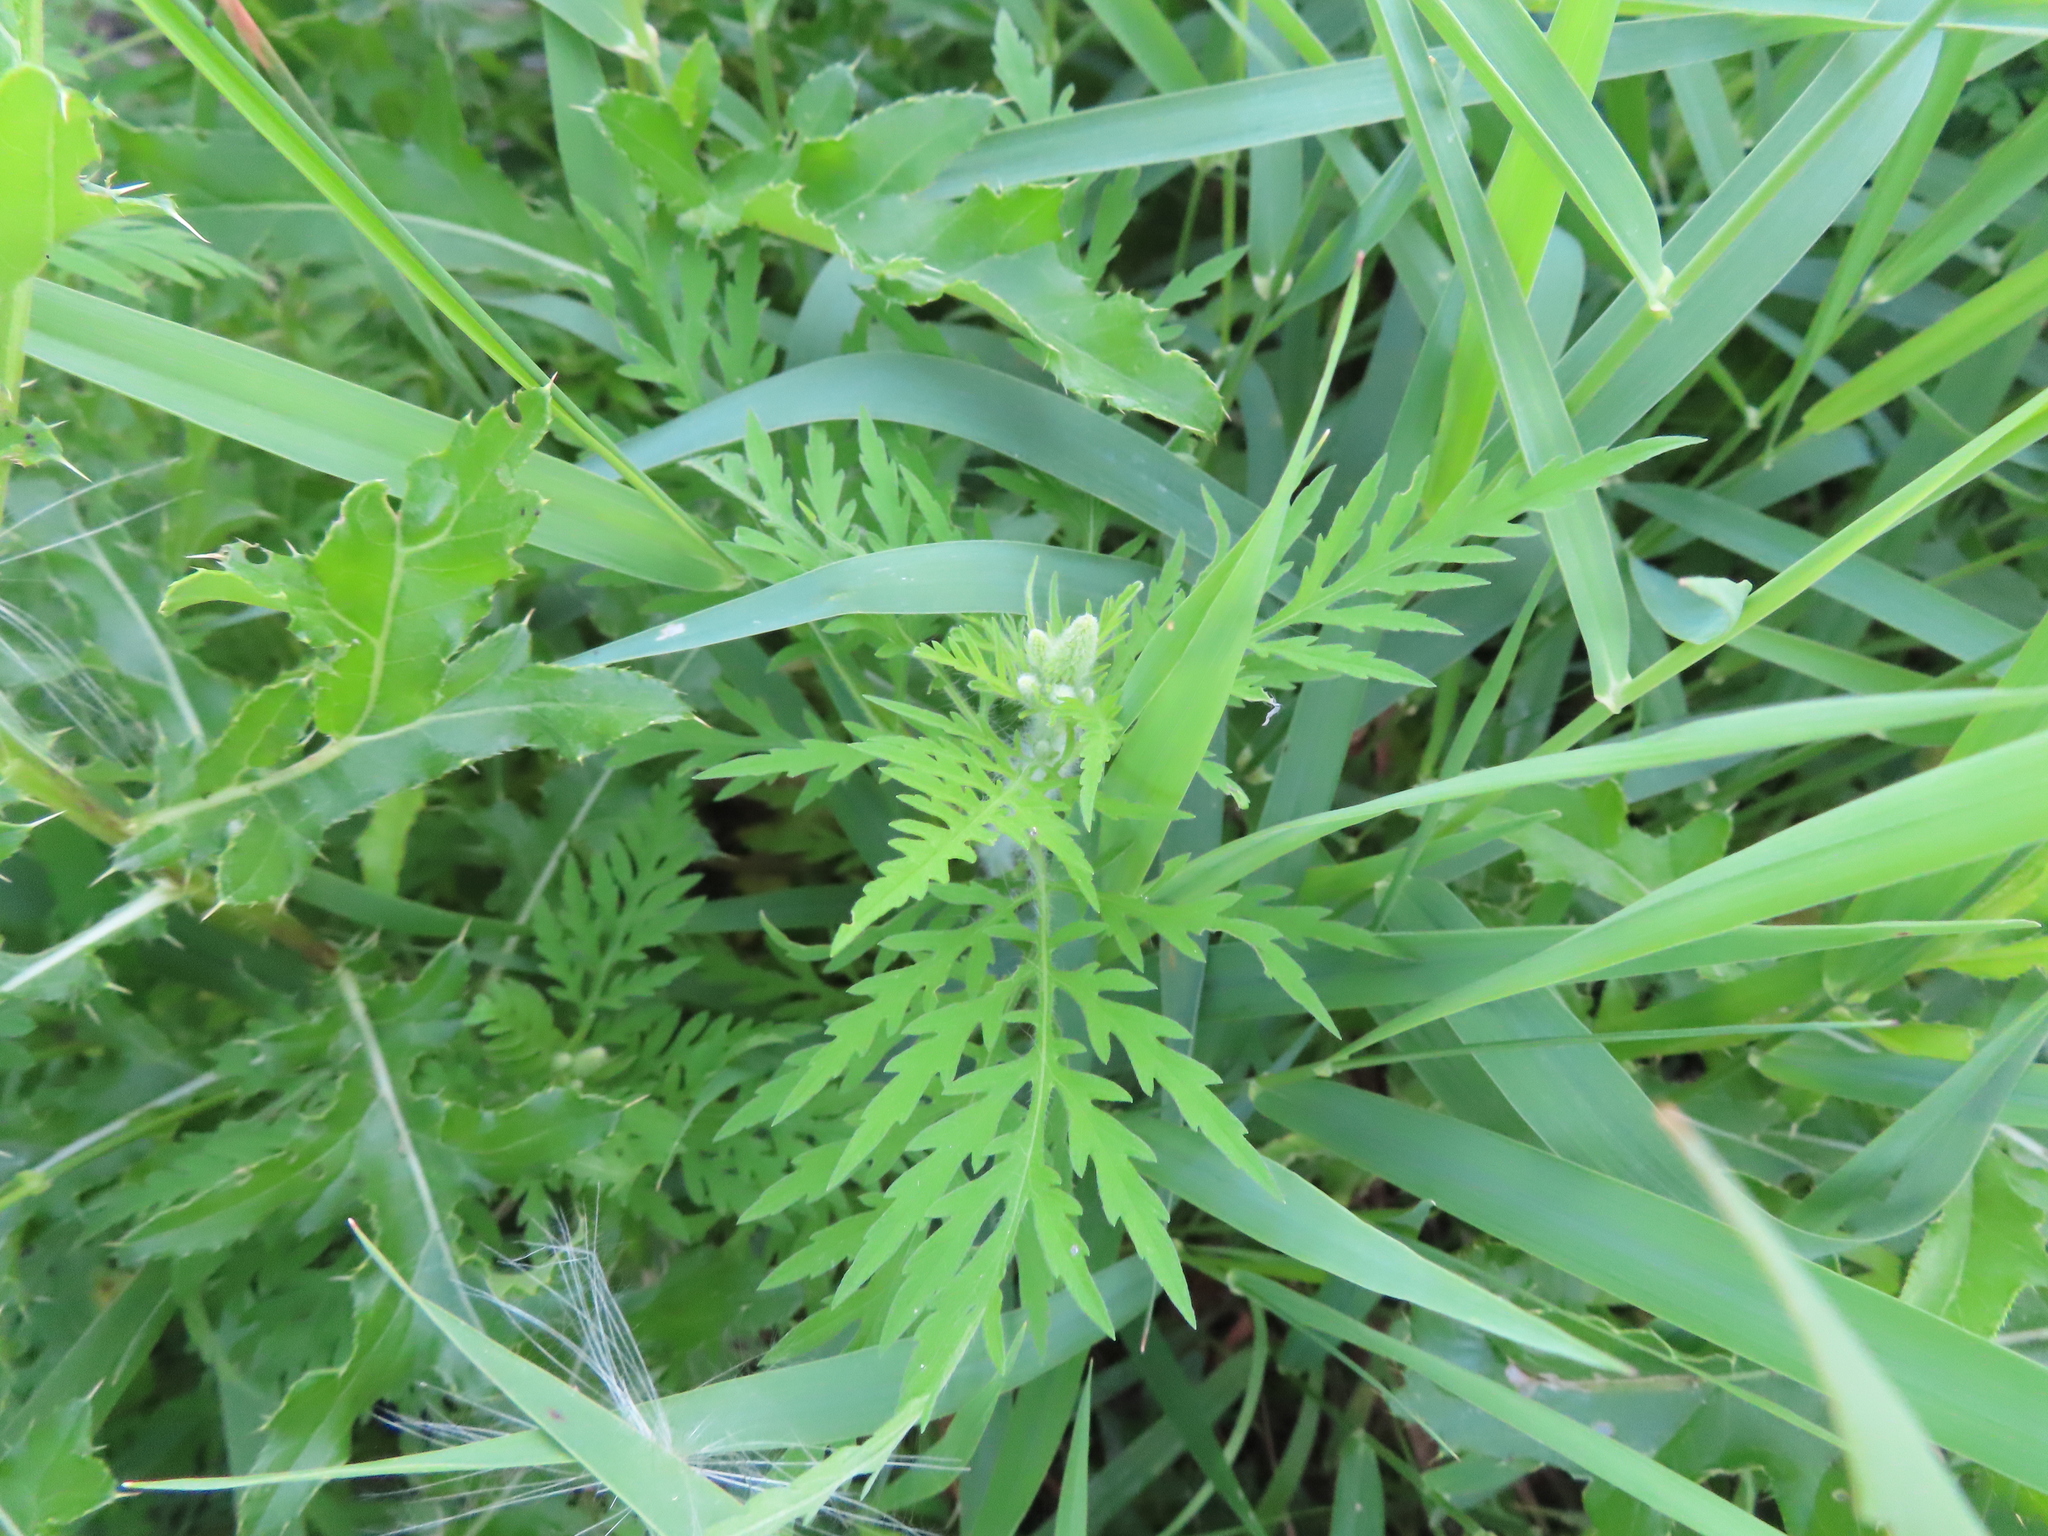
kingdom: Plantae
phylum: Tracheophyta
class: Magnoliopsida
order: Asterales
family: Asteraceae
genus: Ambrosia
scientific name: Ambrosia artemisiifolia
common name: Annual ragweed
